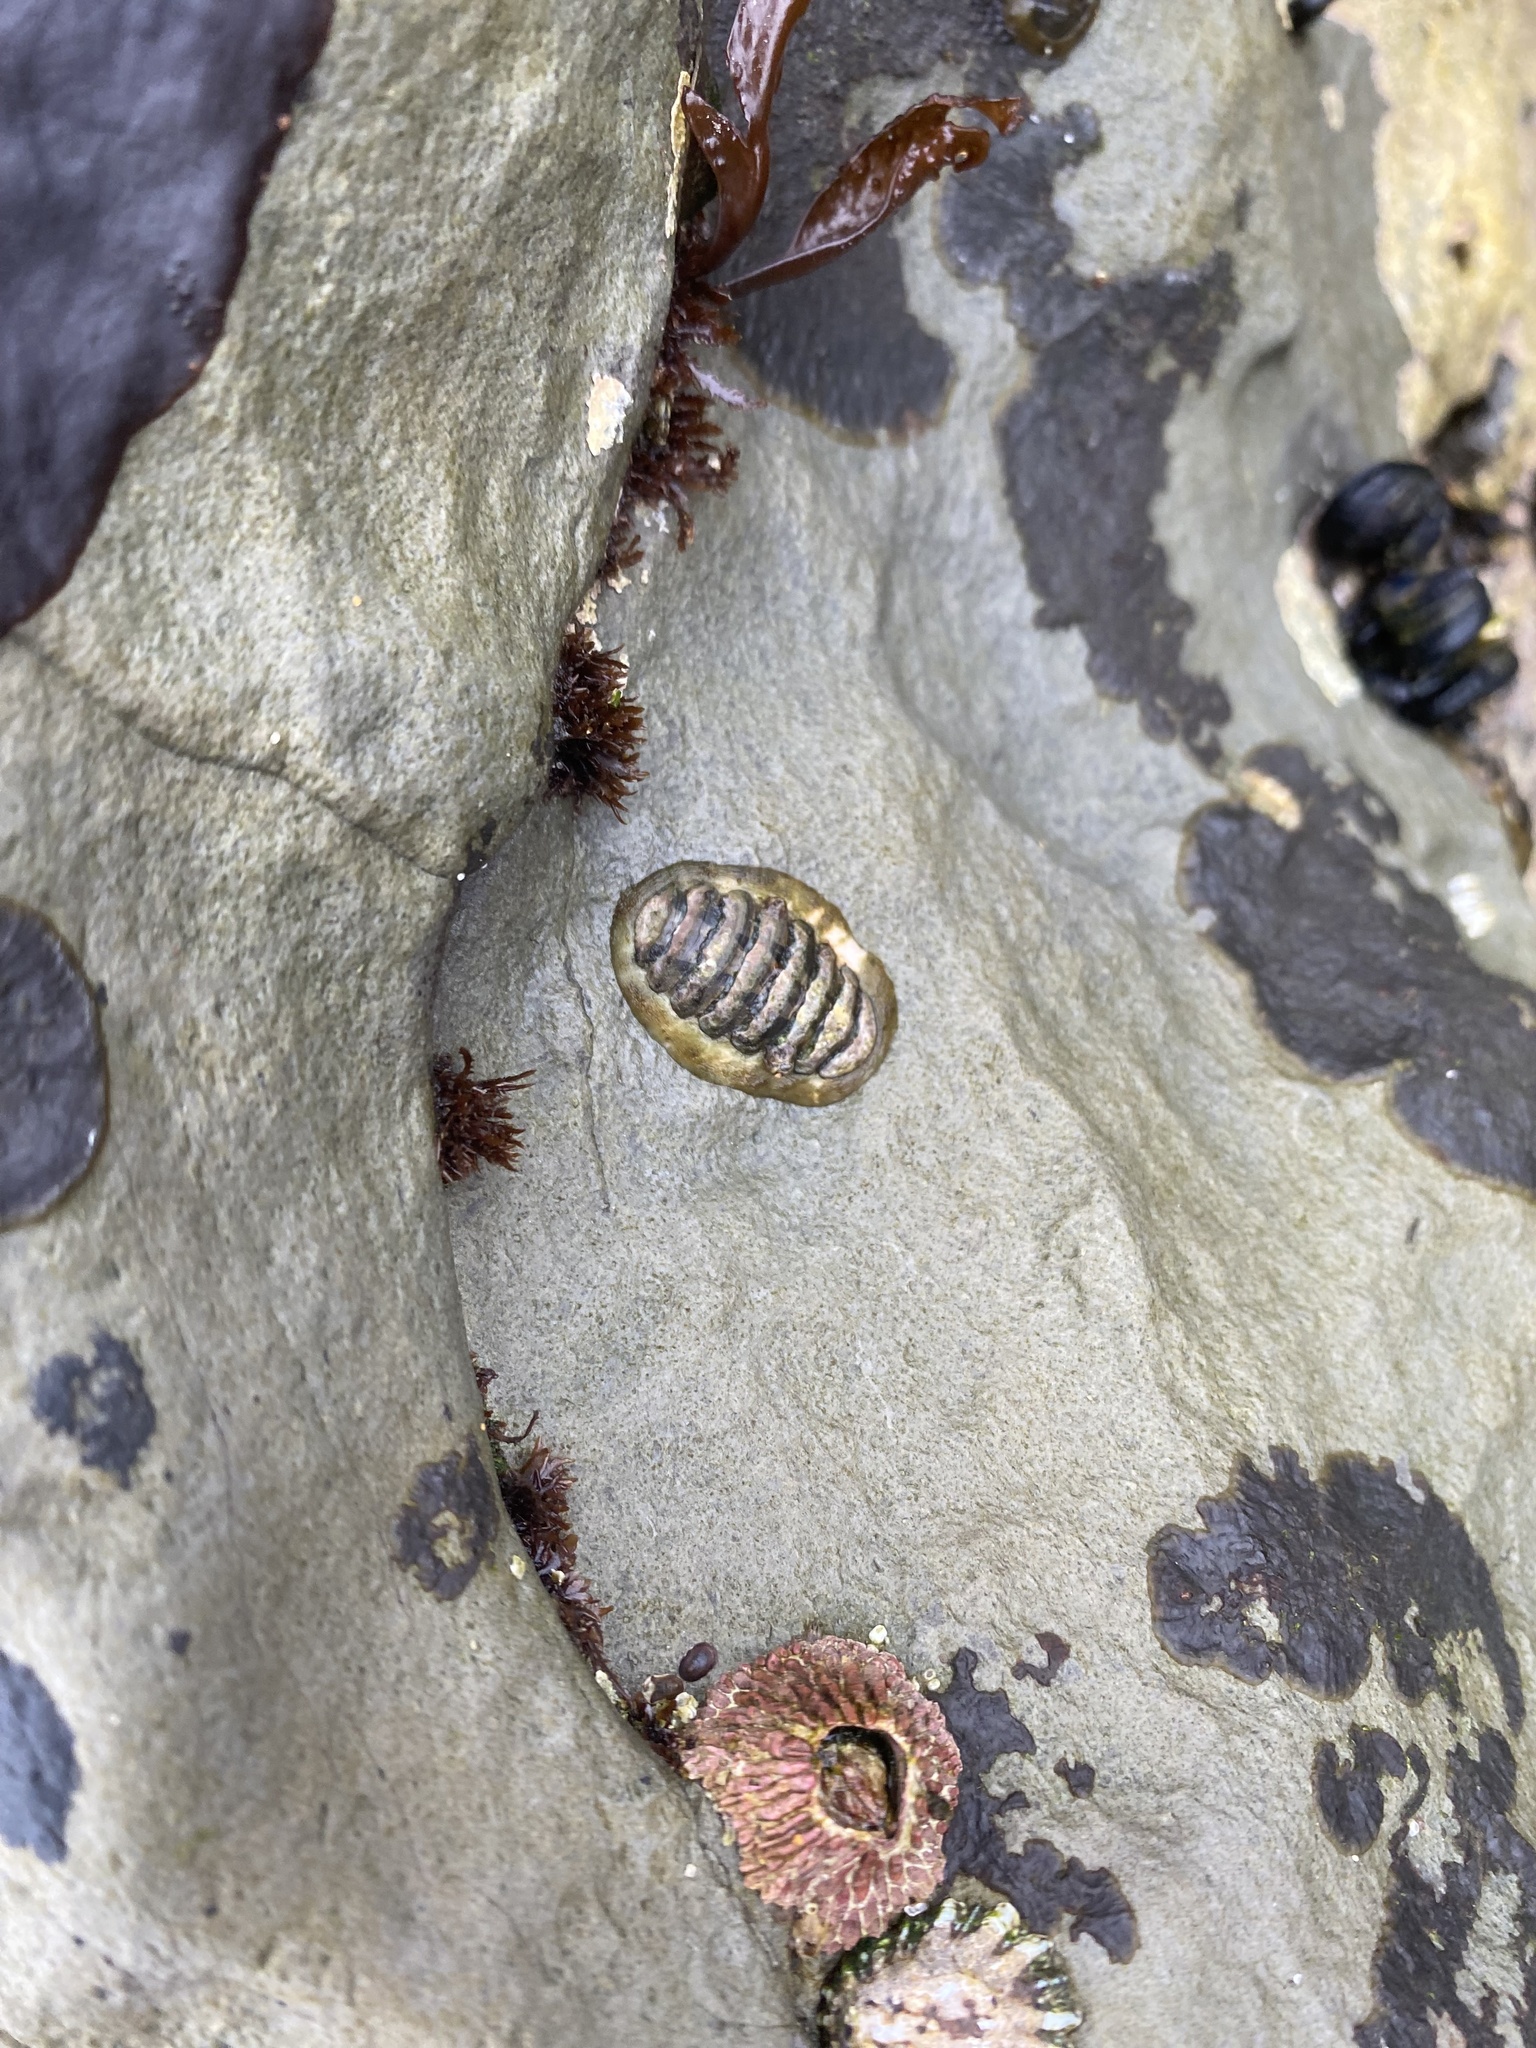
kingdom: Animalia
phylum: Mollusca
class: Polyplacophora
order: Chitonida
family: Tonicellidae
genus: Cyanoplax
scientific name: Cyanoplax hartwegii
